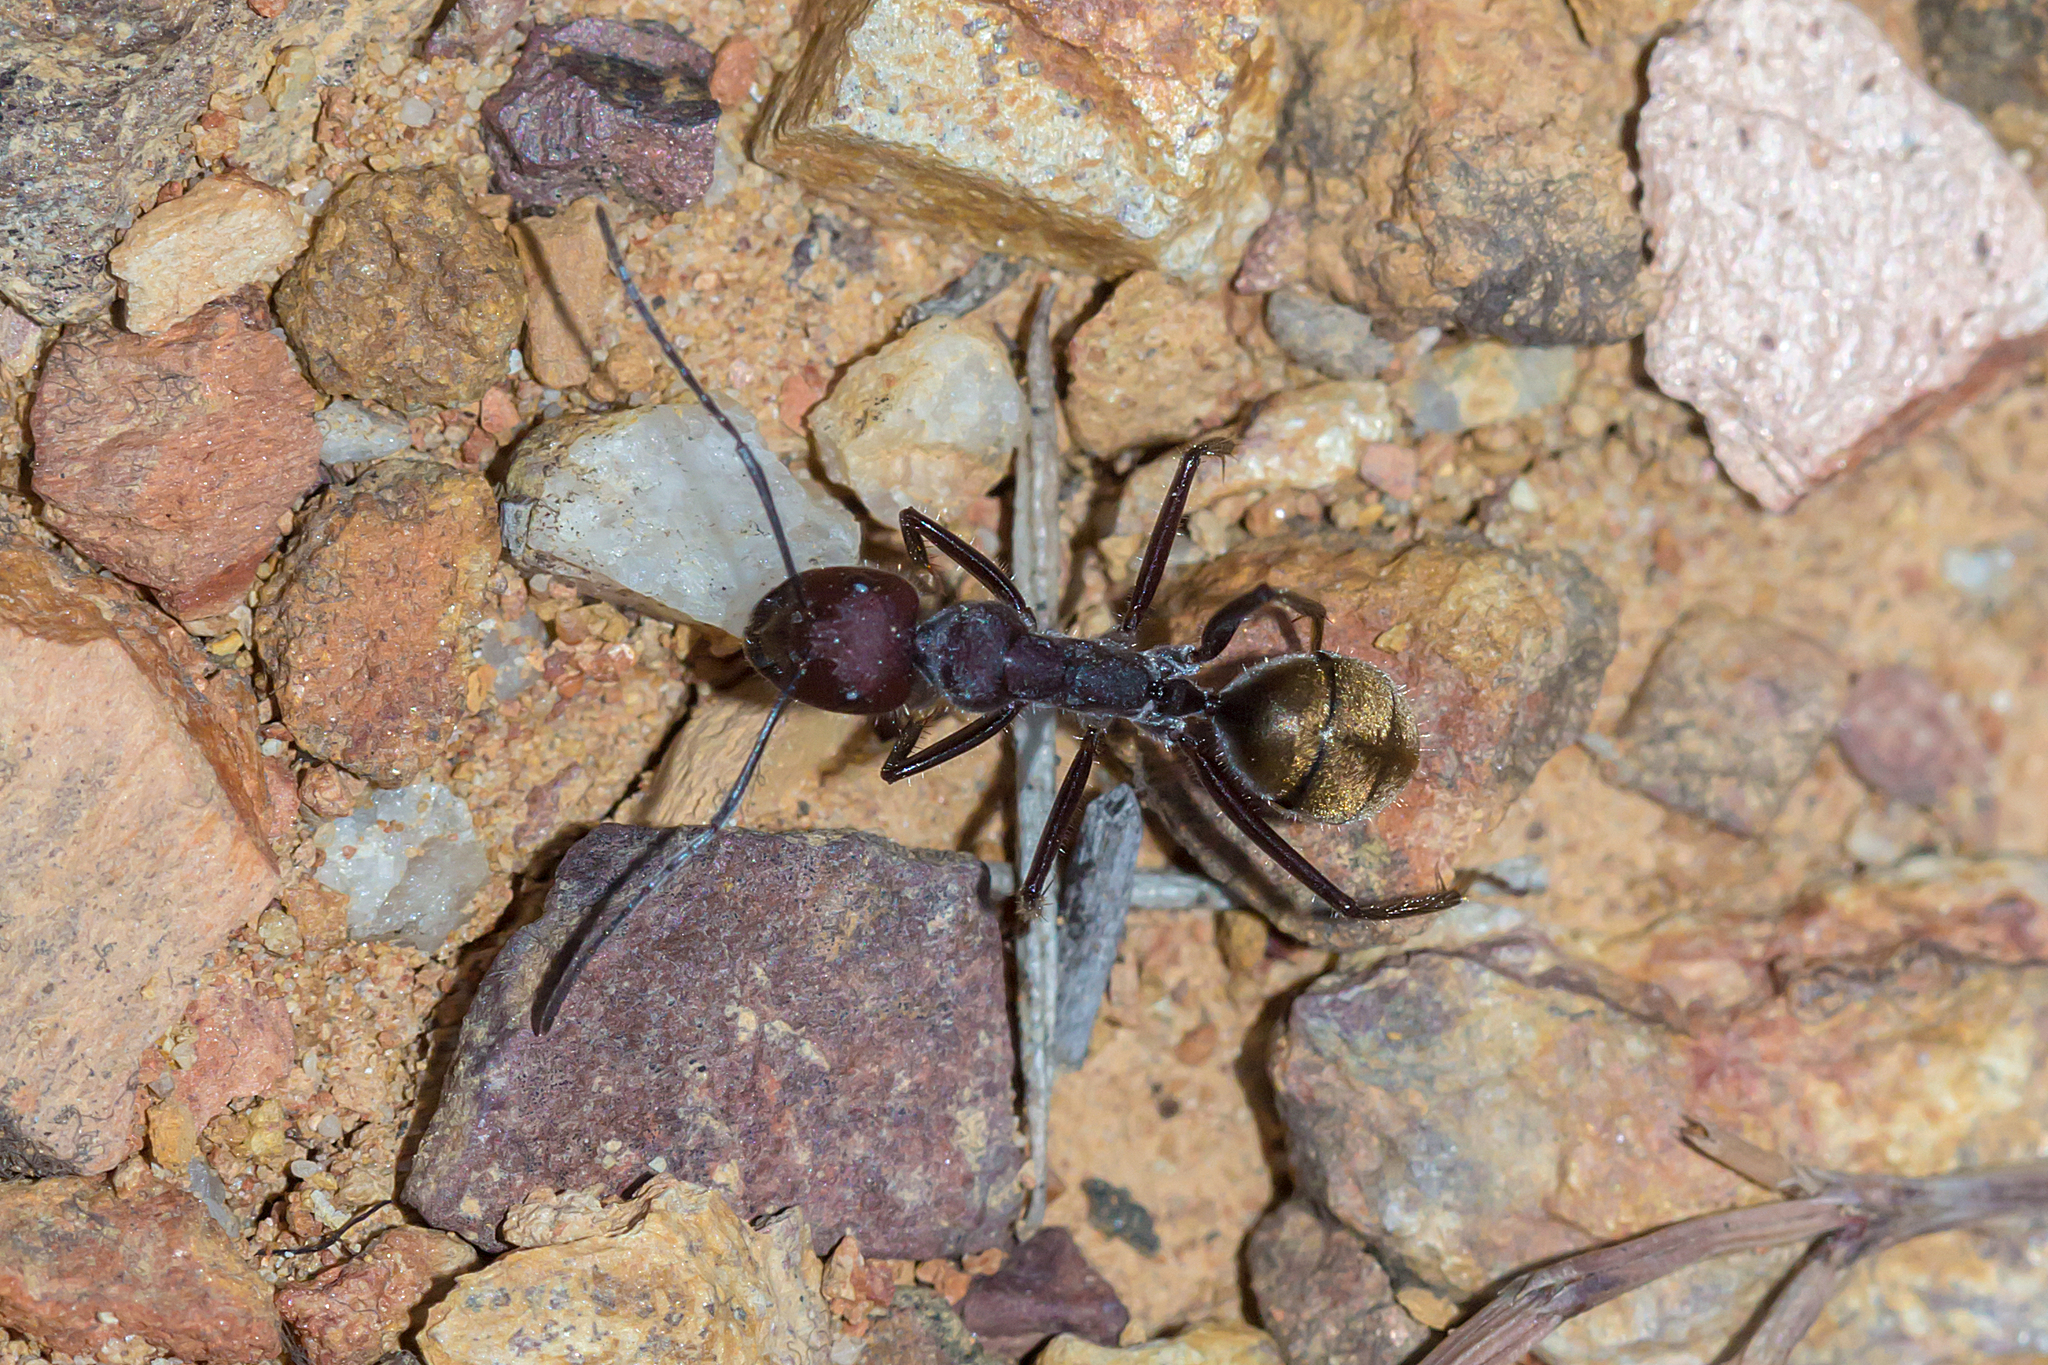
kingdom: Animalia
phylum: Arthropoda
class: Insecta
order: Hymenoptera
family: Formicidae
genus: Camponotus
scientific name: Camponotus suffusus
